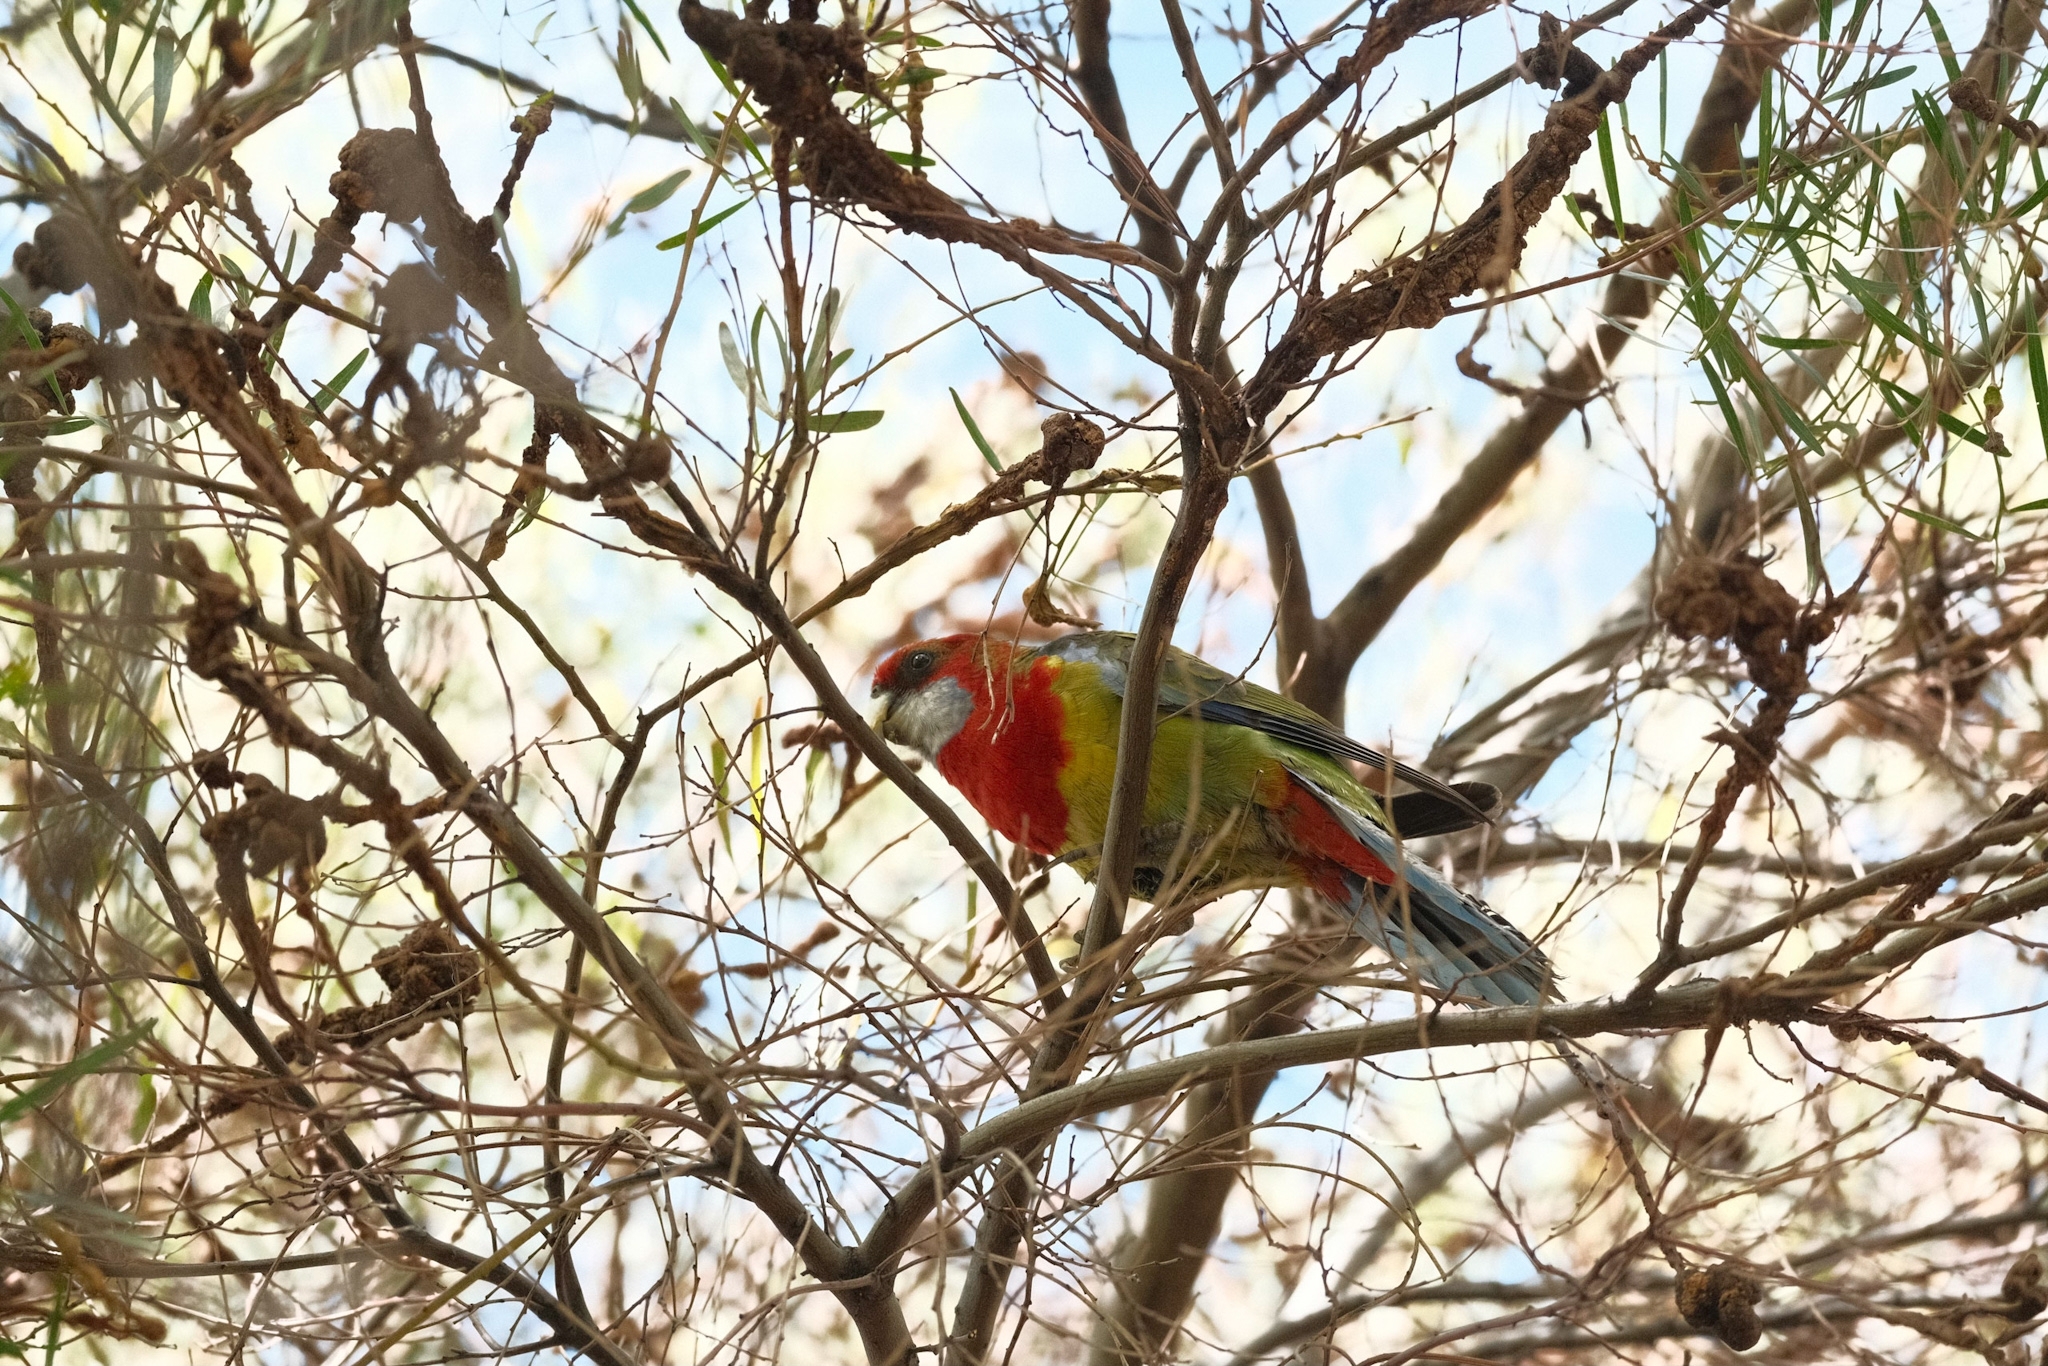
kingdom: Animalia
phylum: Chordata
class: Aves
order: Psittaciformes
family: Psittacidae
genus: Platycercus
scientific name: Platycercus eximius
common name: Eastern rosella
